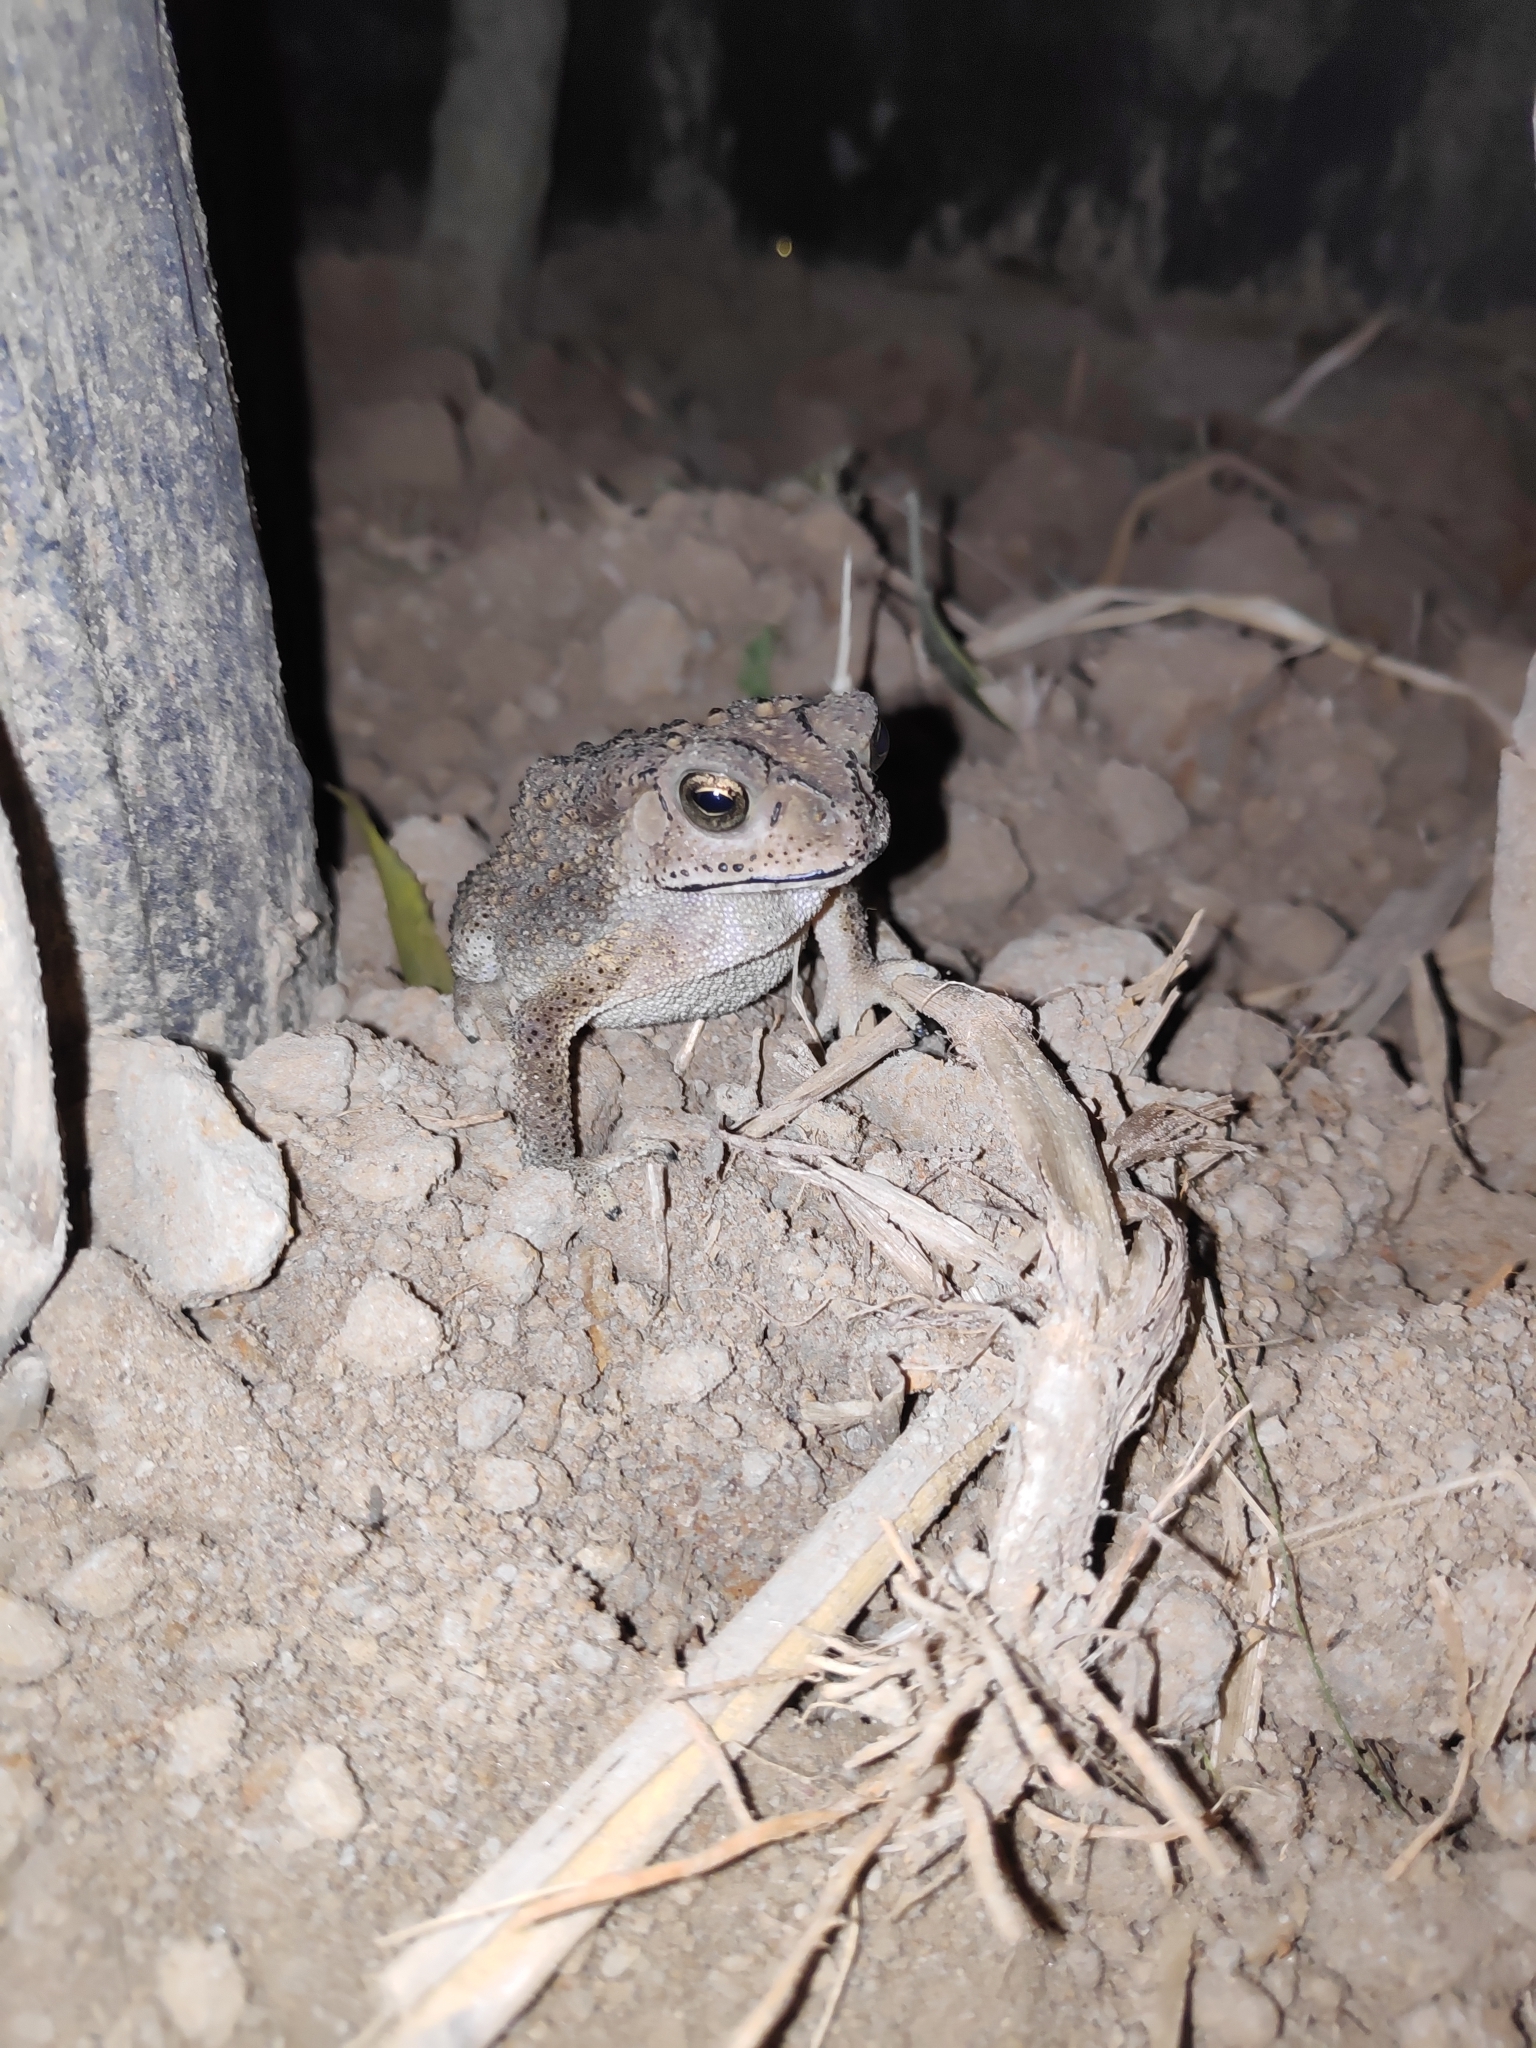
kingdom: Animalia
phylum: Chordata
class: Amphibia
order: Anura
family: Bufonidae
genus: Duttaphrynus
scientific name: Duttaphrynus melanostictus
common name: Common sunda toad
